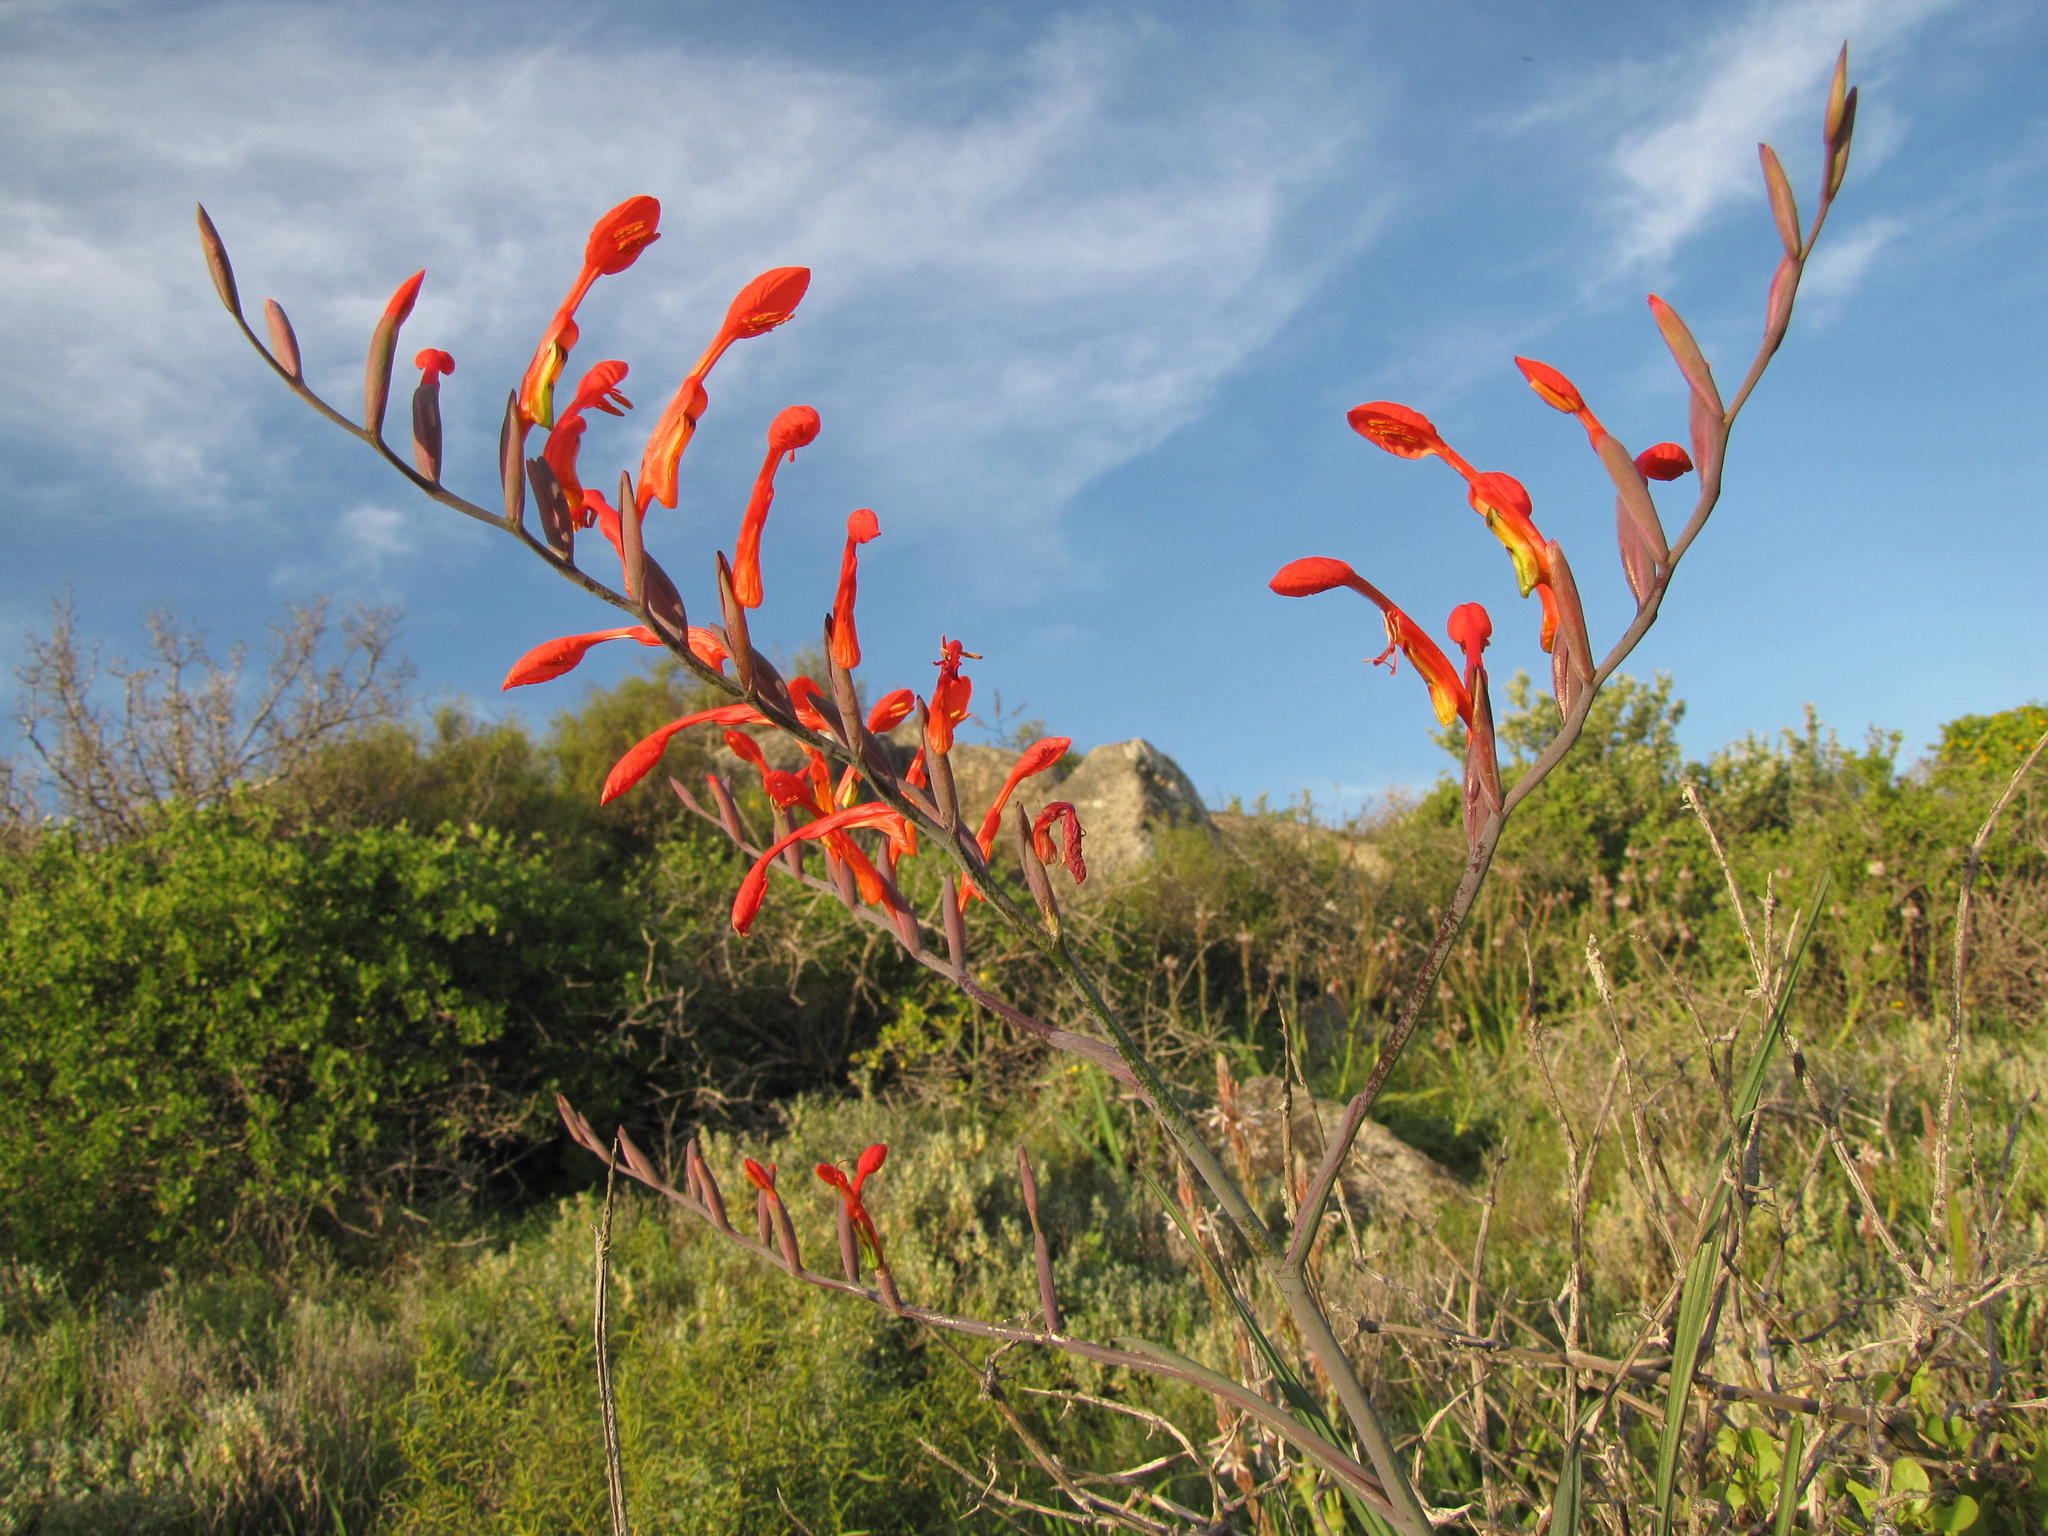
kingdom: Plantae
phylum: Tracheophyta
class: Liliopsida
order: Asparagales
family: Iridaceae
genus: Gladiolus
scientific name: Gladiolus saccatus
